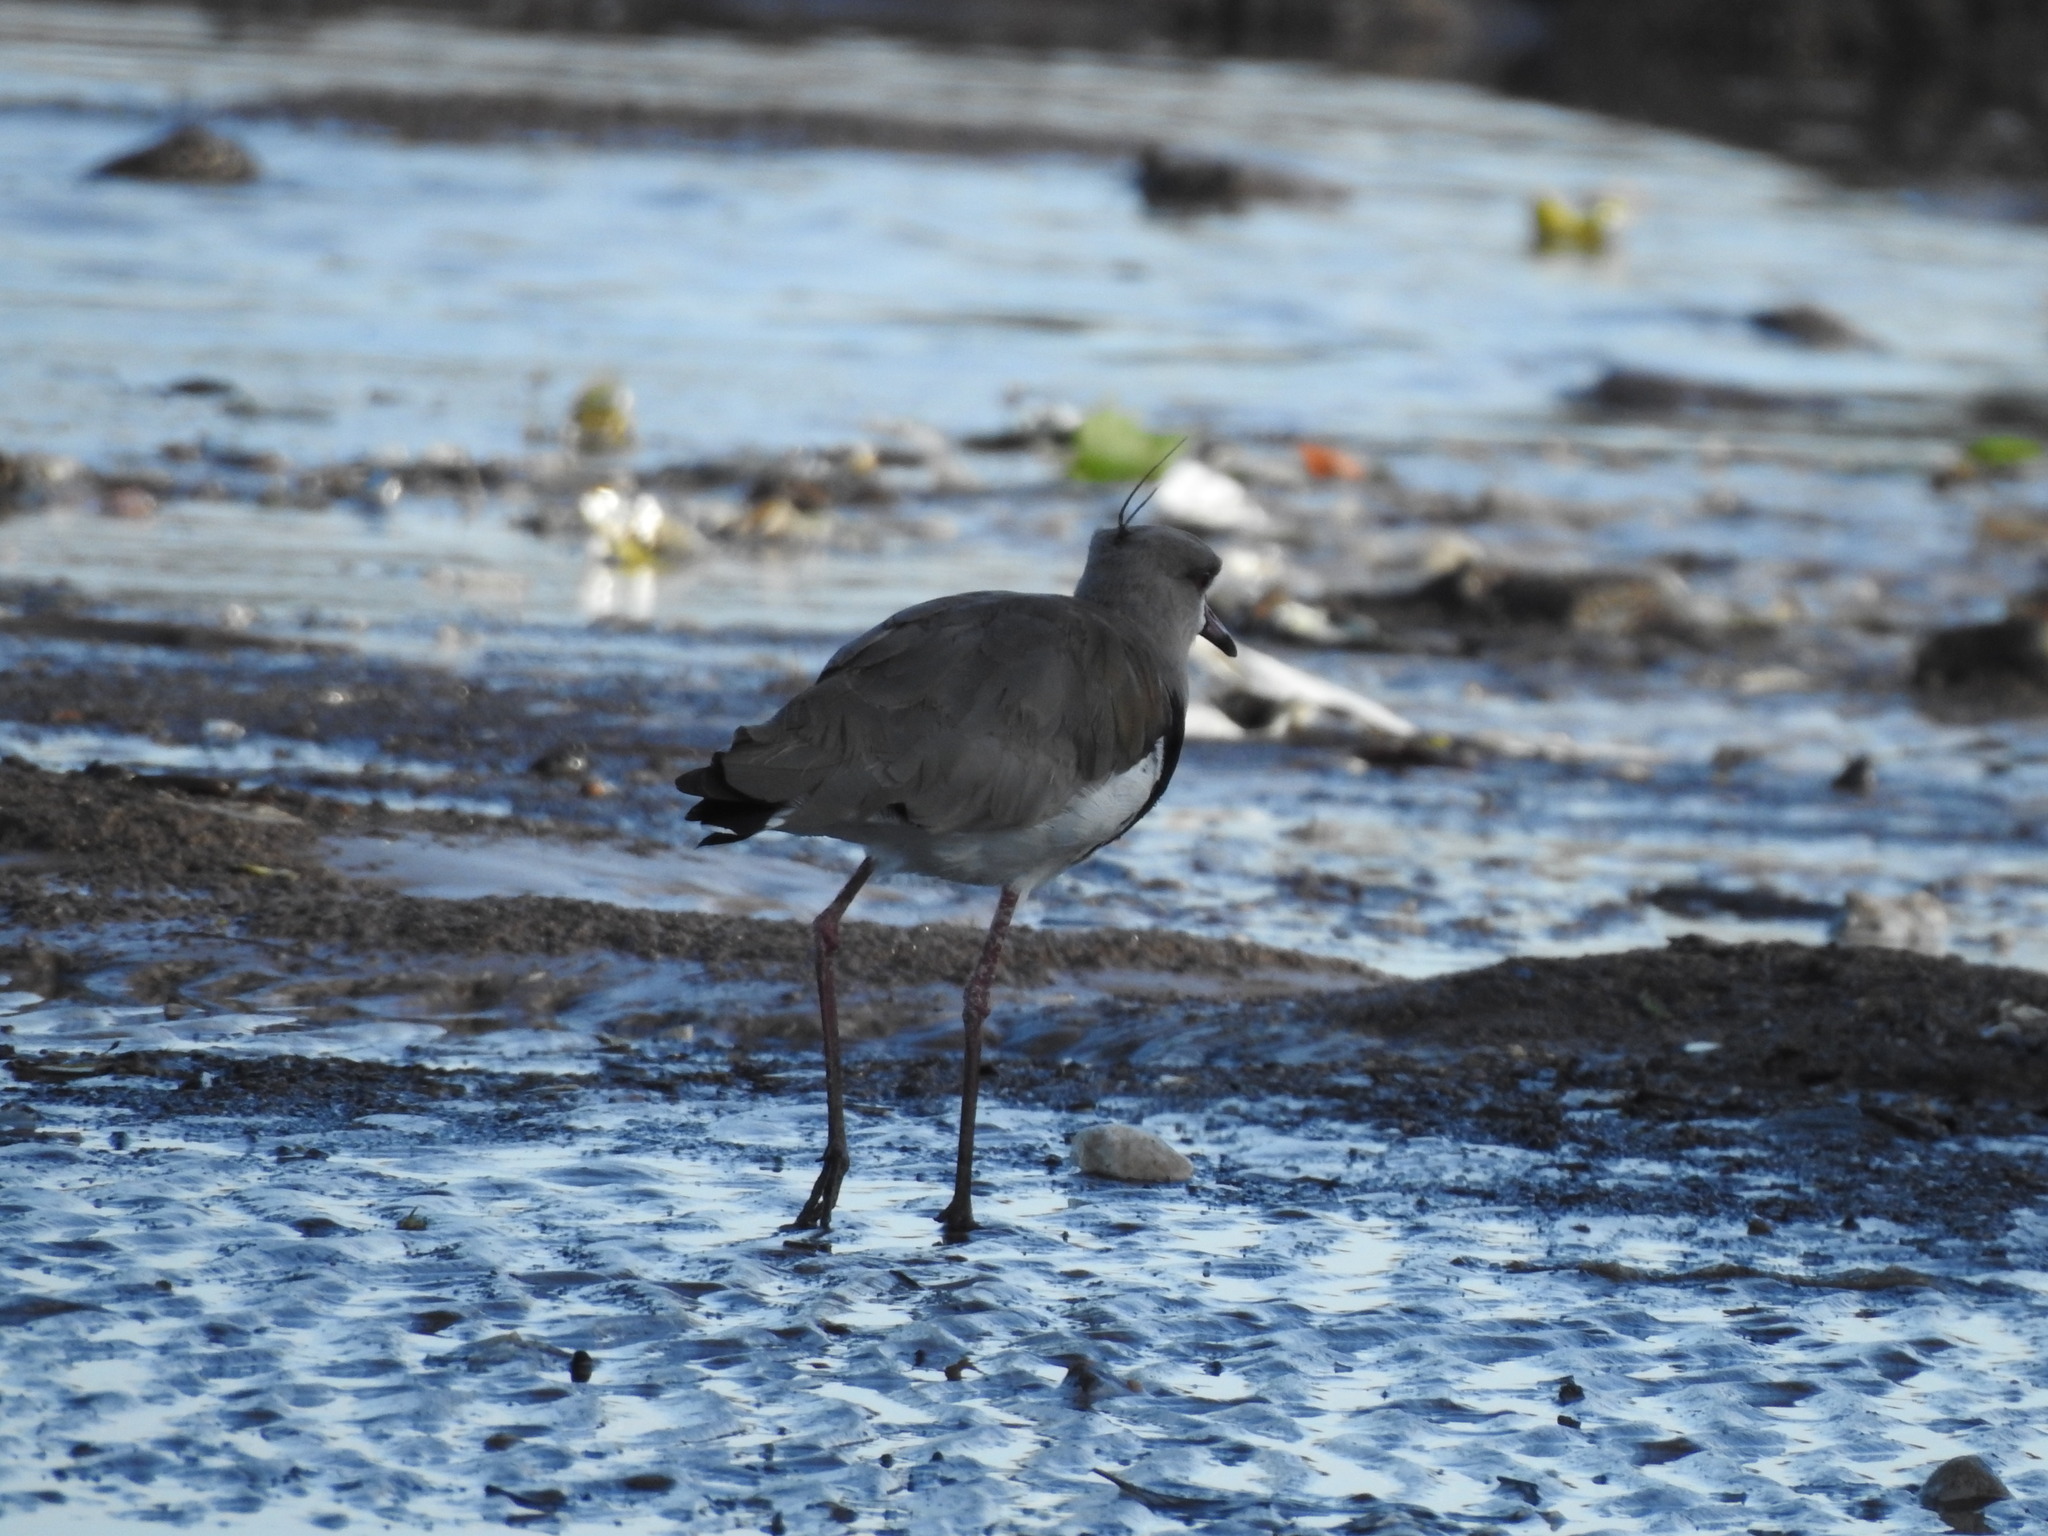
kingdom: Animalia
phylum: Chordata
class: Aves
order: Charadriiformes
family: Charadriidae
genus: Vanellus
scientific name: Vanellus chilensis
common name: Southern lapwing
